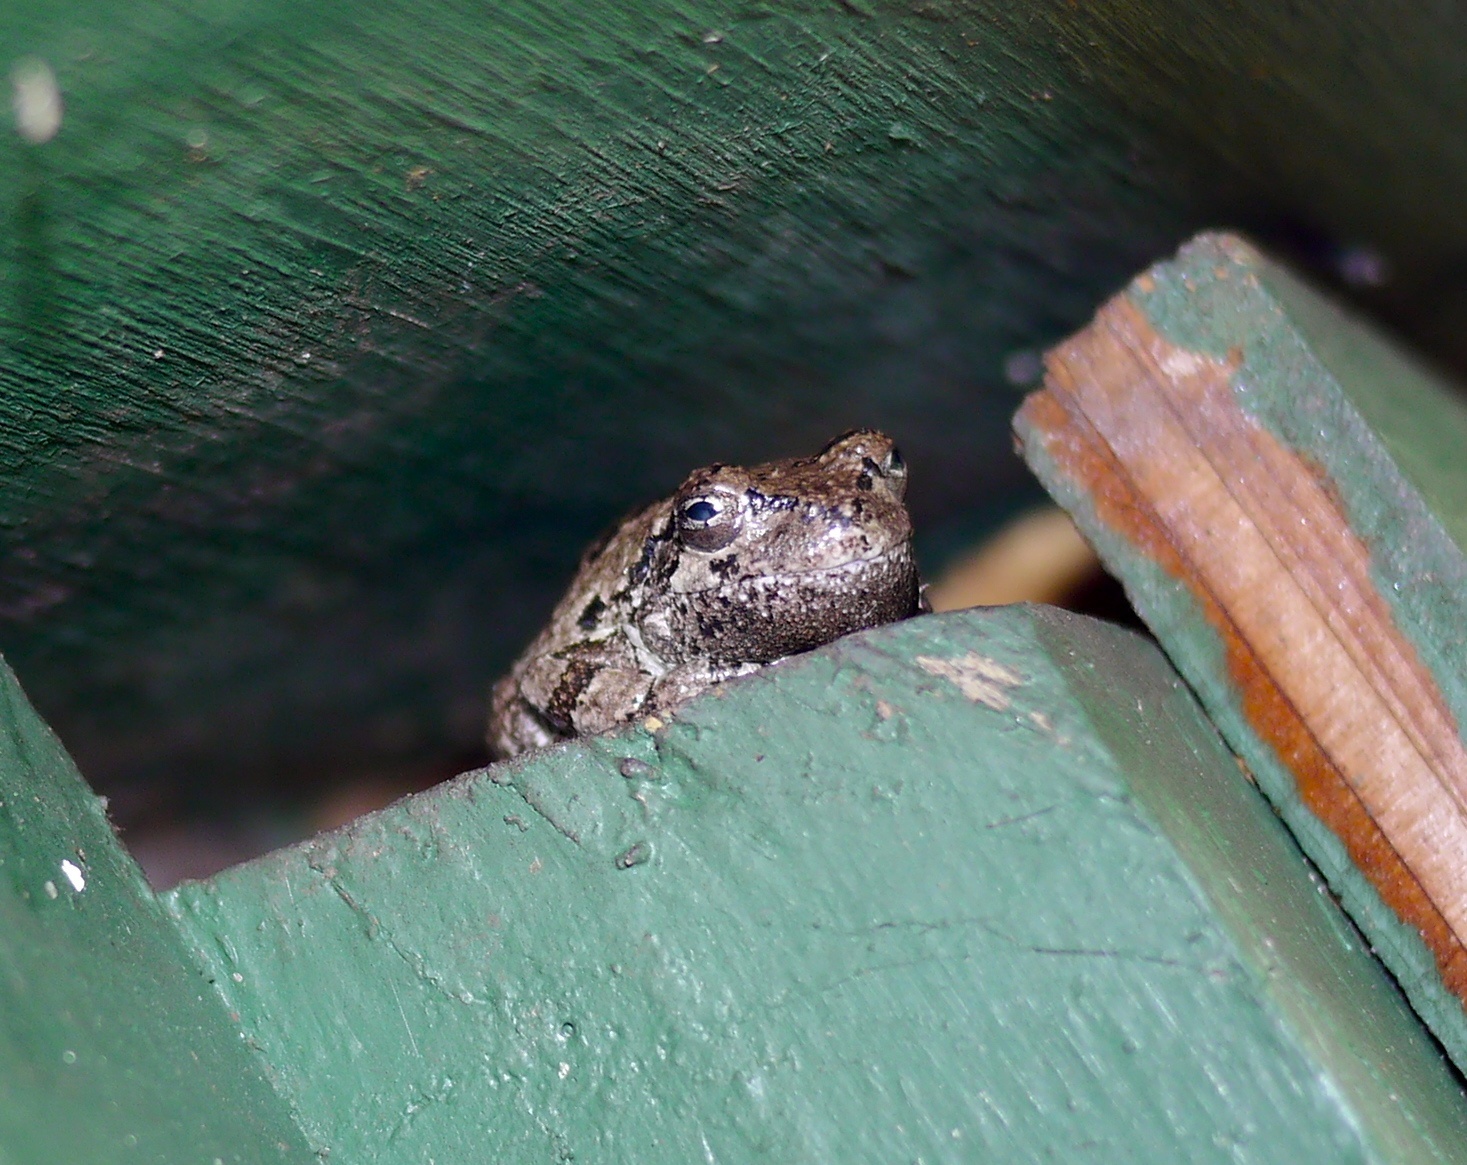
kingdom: Animalia
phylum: Chordata
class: Amphibia
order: Anura
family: Hylidae
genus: Dryophytes
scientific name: Dryophytes versicolor
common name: Gray treefrog
